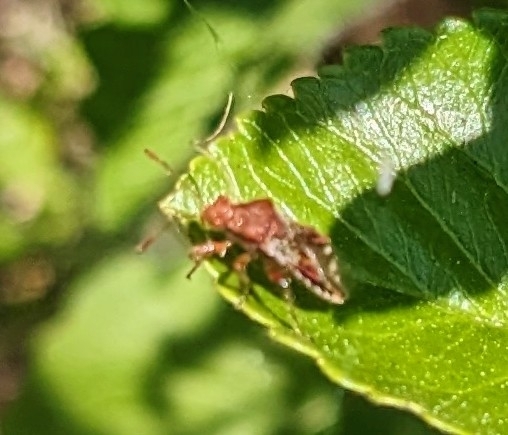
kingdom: Animalia
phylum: Arthropoda
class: Insecta
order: Hemiptera
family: Rhopalidae
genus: Rhopalus
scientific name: Rhopalus subrufus
